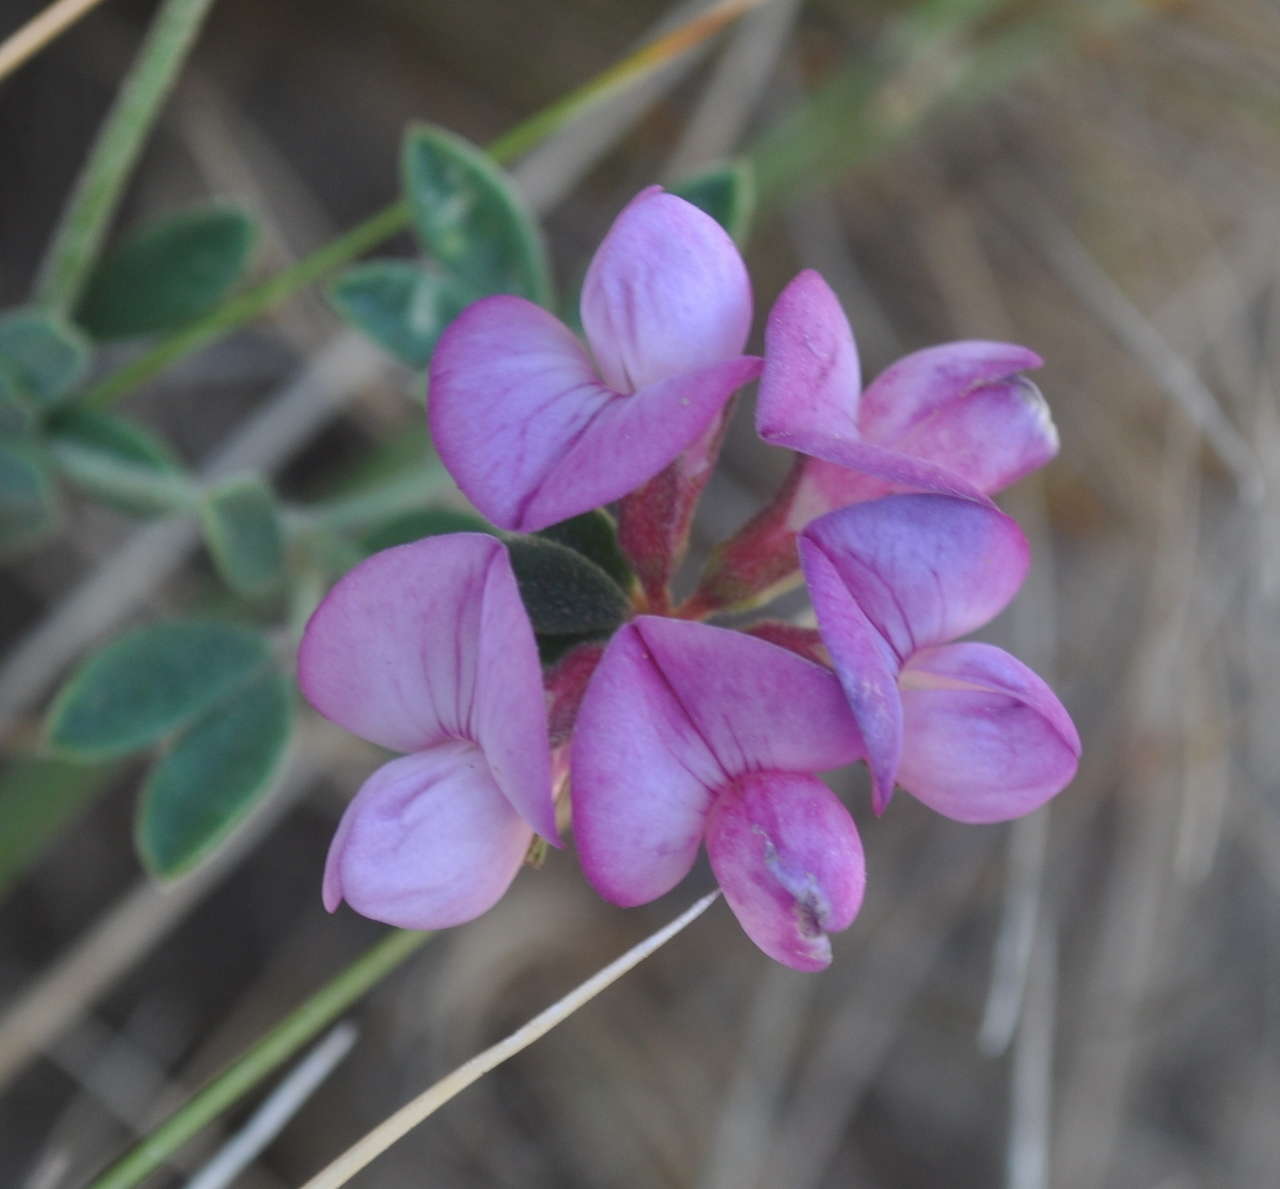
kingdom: Plantae
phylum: Tracheophyta
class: Magnoliopsida
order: Fabales
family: Fabaceae
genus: Lotus
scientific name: Lotus australis
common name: Australian trefoil
